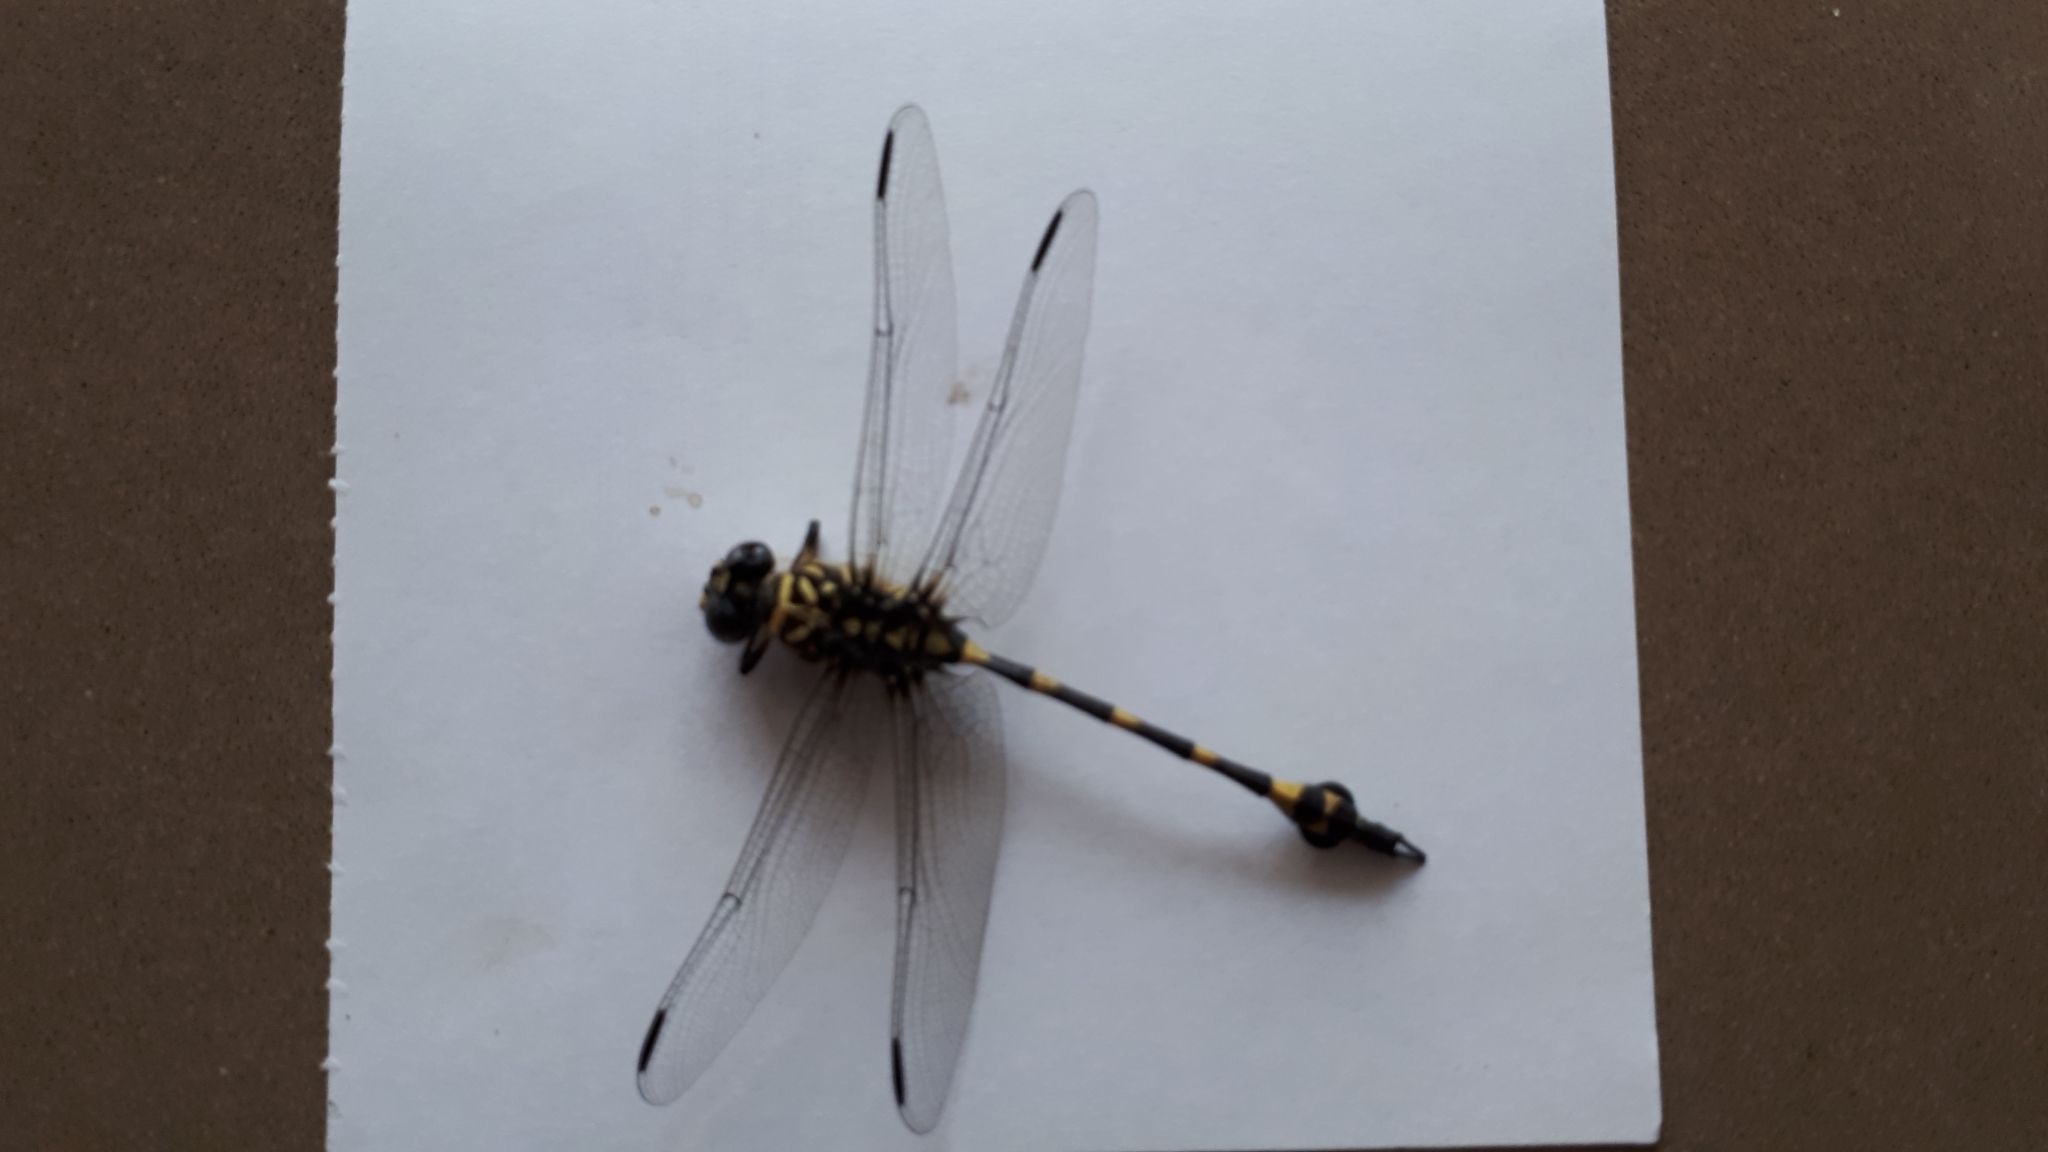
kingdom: Animalia
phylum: Arthropoda
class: Insecta
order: Odonata
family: Gomphidae
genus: Ictinogomphus
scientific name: Ictinogomphus australis
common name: Australian tiger
